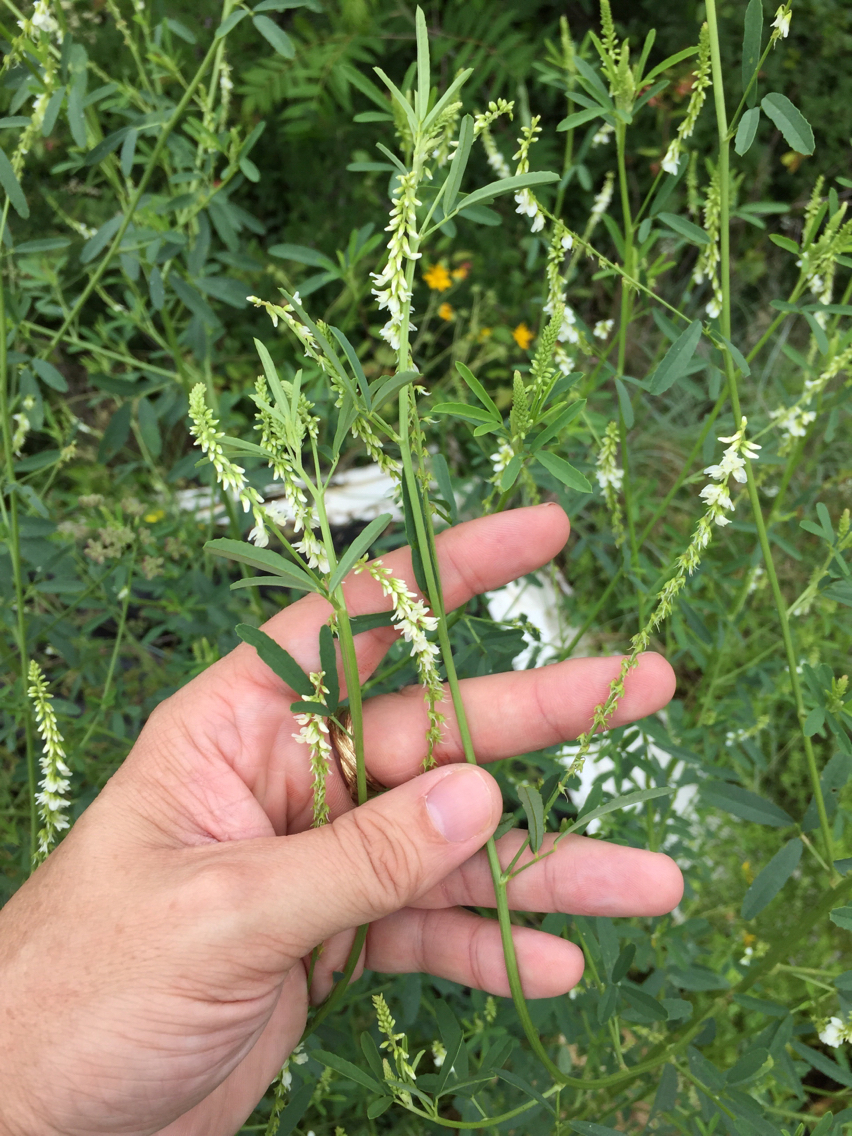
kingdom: Plantae
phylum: Tracheophyta
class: Magnoliopsida
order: Fabales
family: Fabaceae
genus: Melilotus
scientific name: Melilotus albus
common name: White melilot
